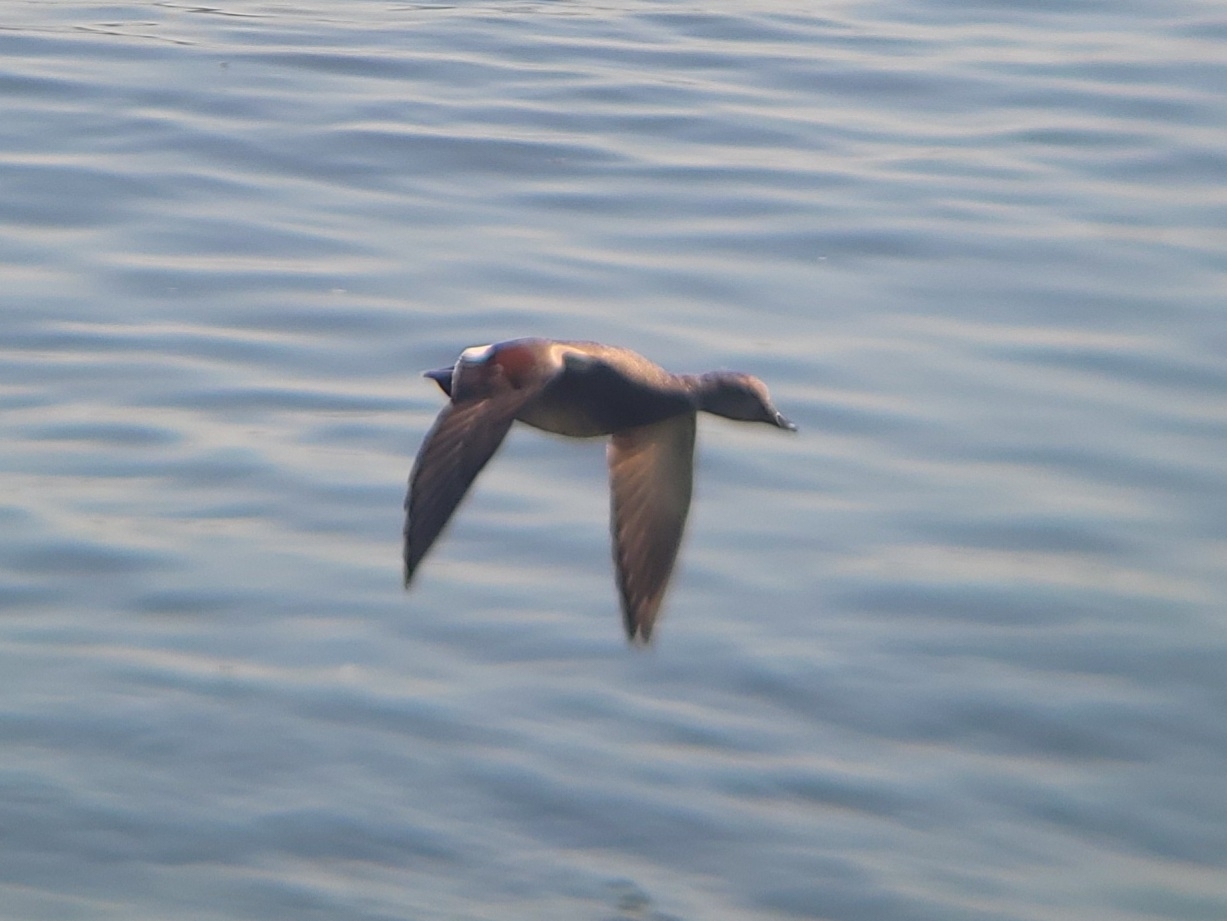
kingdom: Animalia
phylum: Chordata
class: Aves
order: Anseriformes
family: Anatidae
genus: Mareca
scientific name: Mareca strepera
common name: Gadwall
